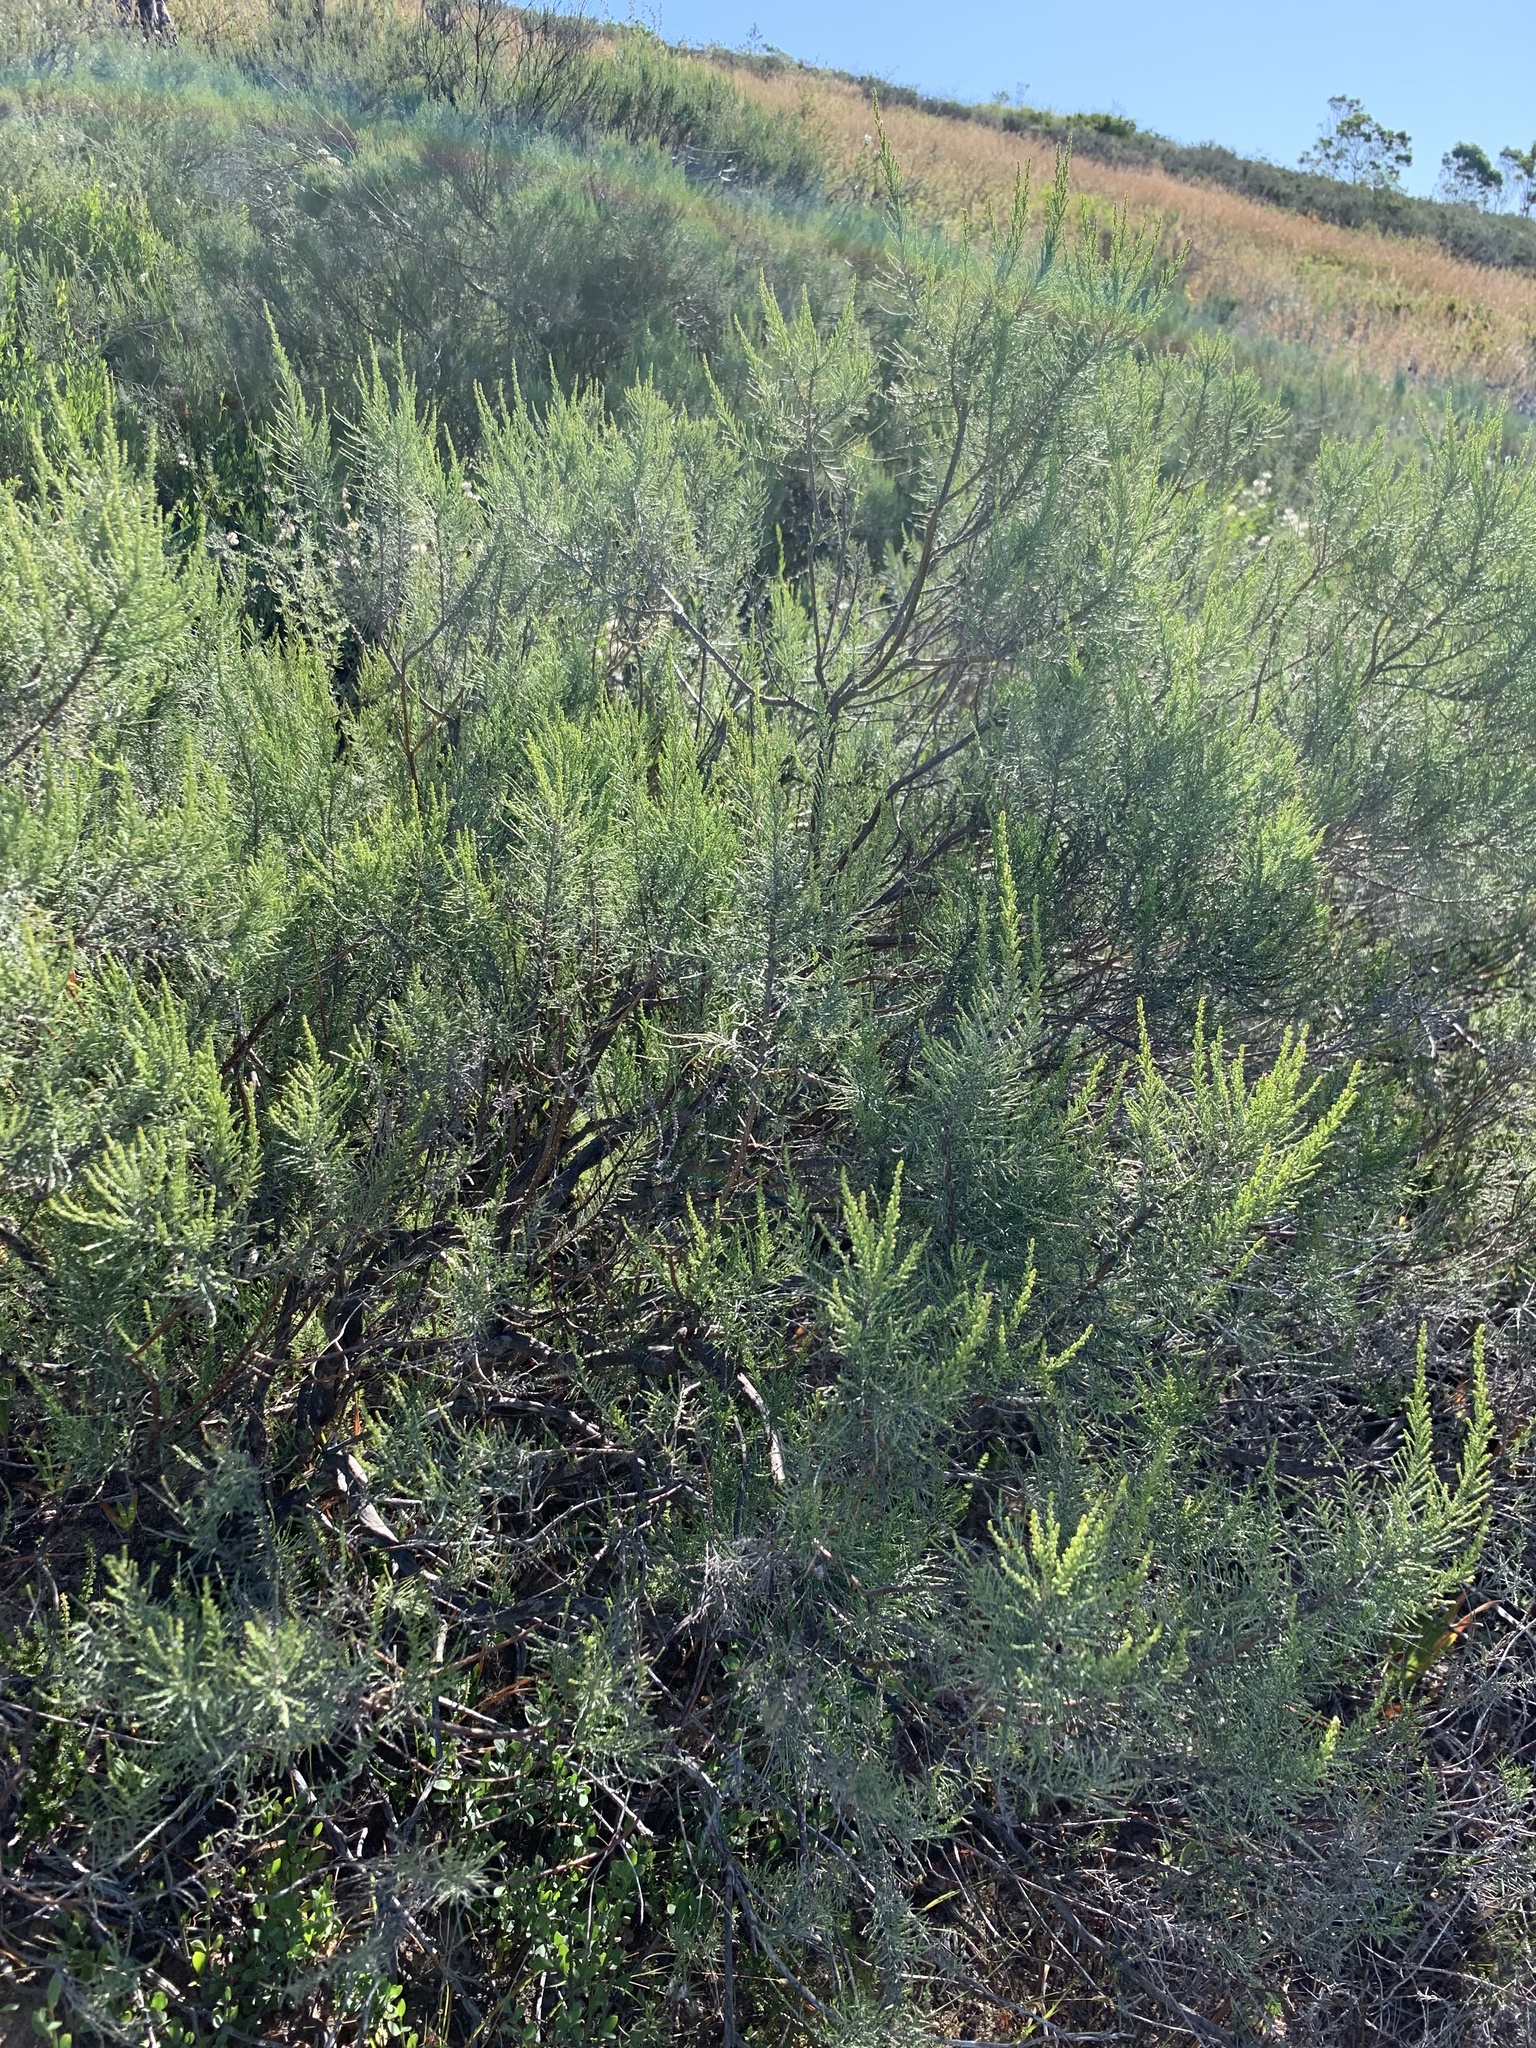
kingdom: Plantae
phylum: Tracheophyta
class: Magnoliopsida
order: Asterales
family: Asteraceae
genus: Dicerothamnus
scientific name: Dicerothamnus rhinocerotis
